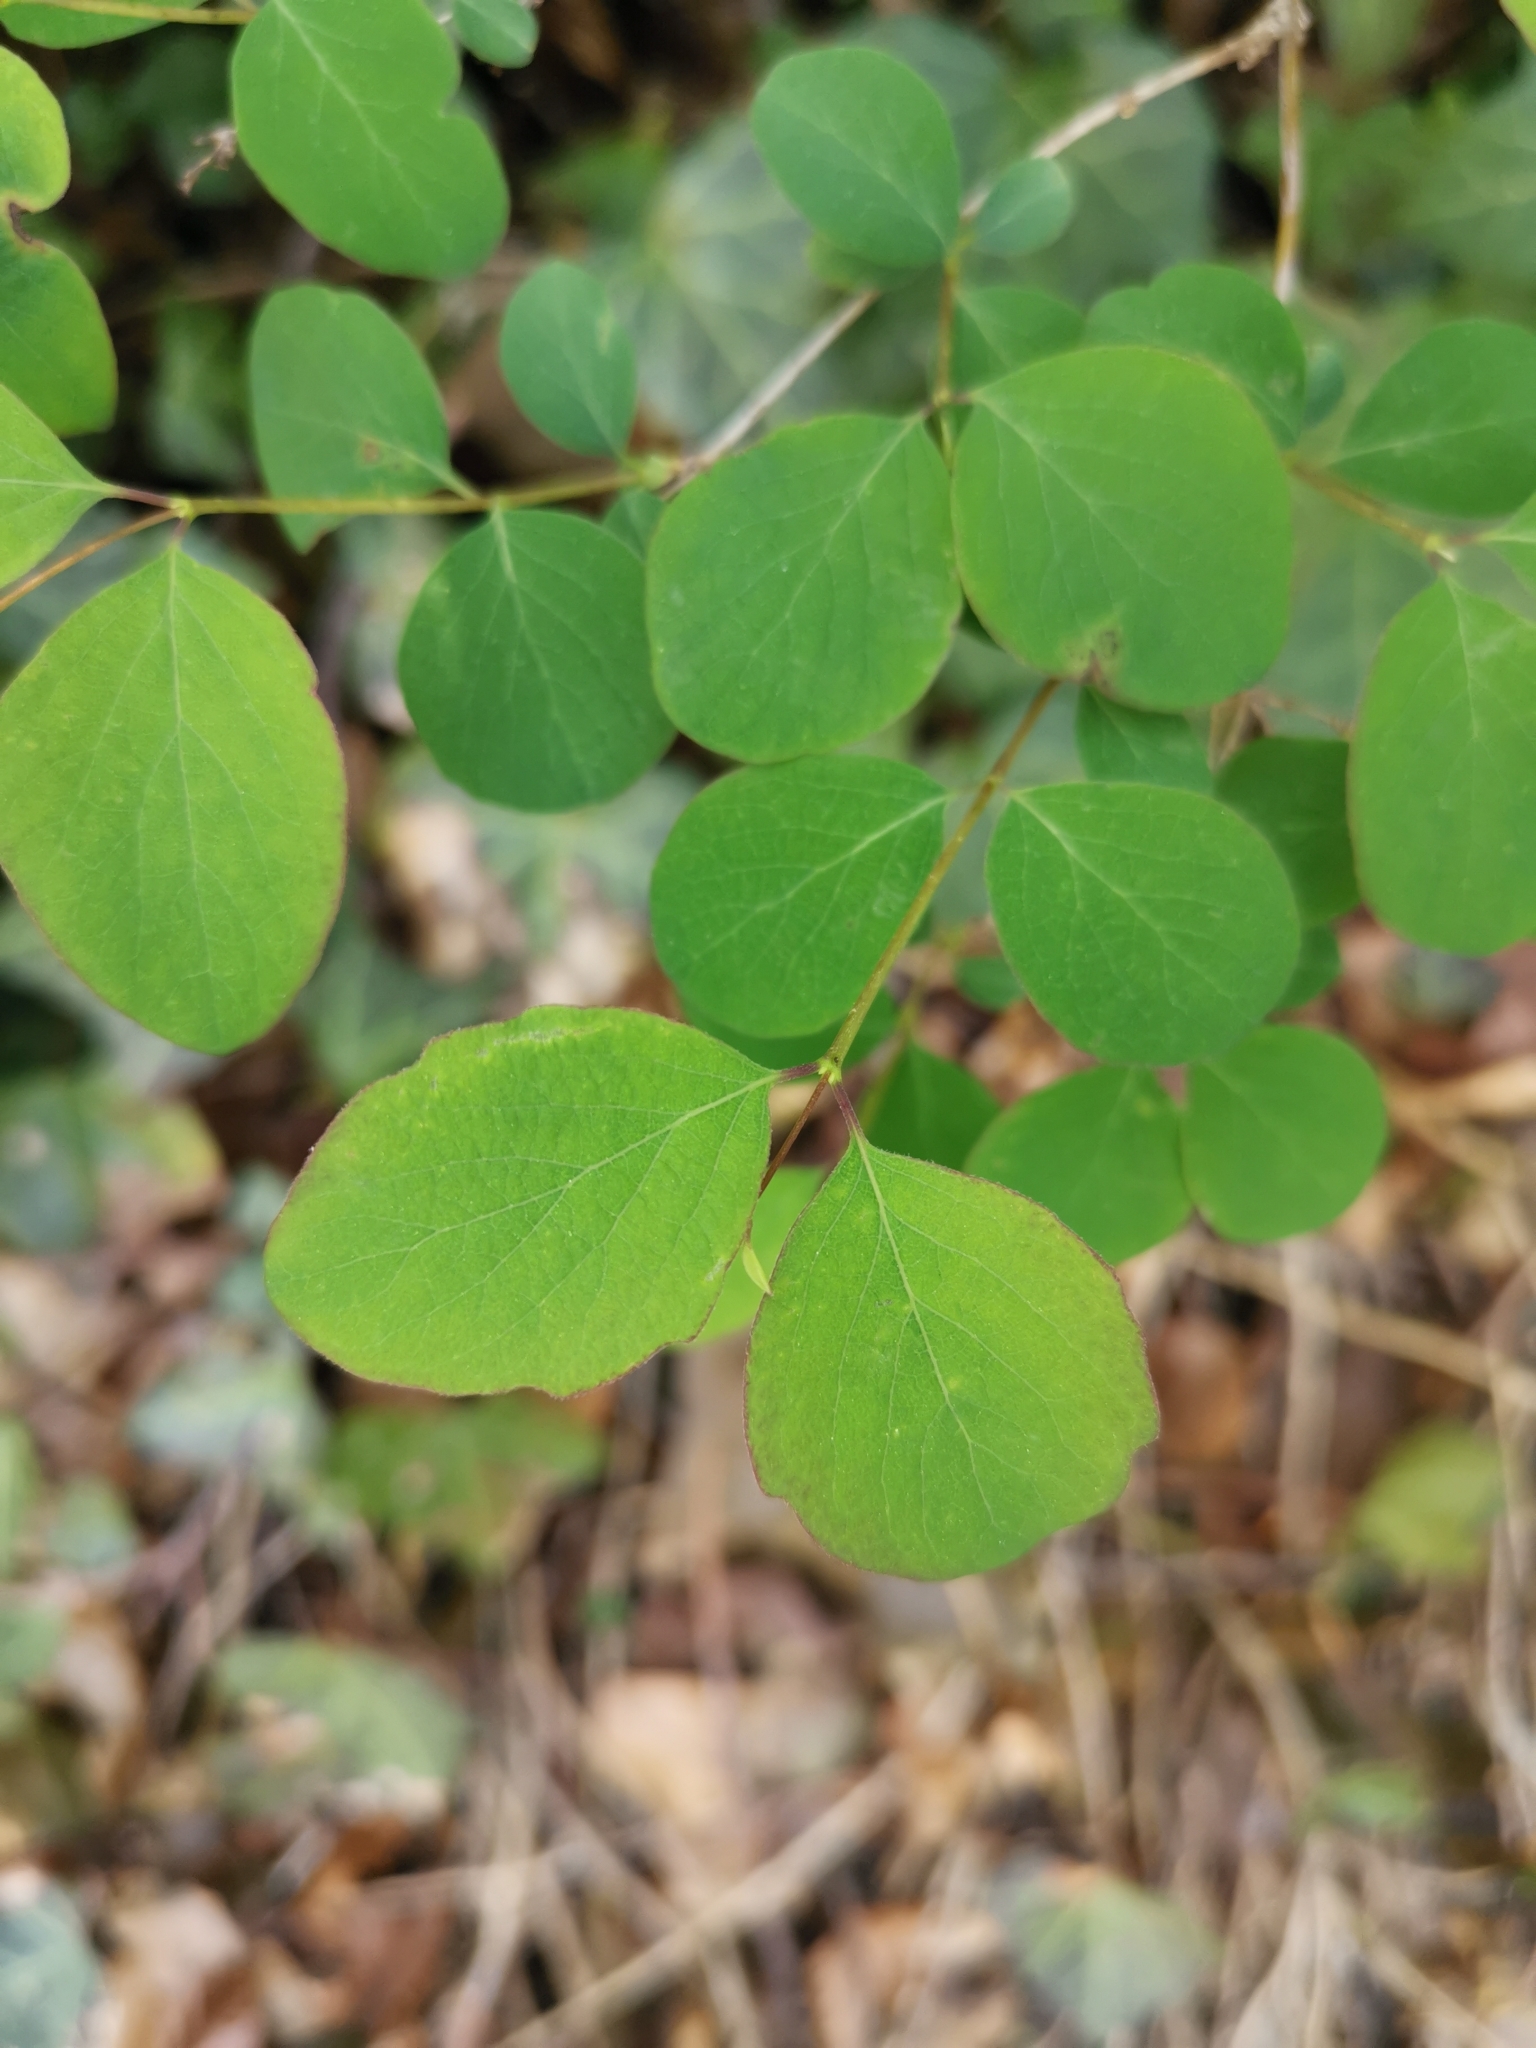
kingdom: Plantae
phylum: Tracheophyta
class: Magnoliopsida
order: Dipsacales
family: Caprifoliaceae
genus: Symphoricarpos
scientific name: Symphoricarpos albus
